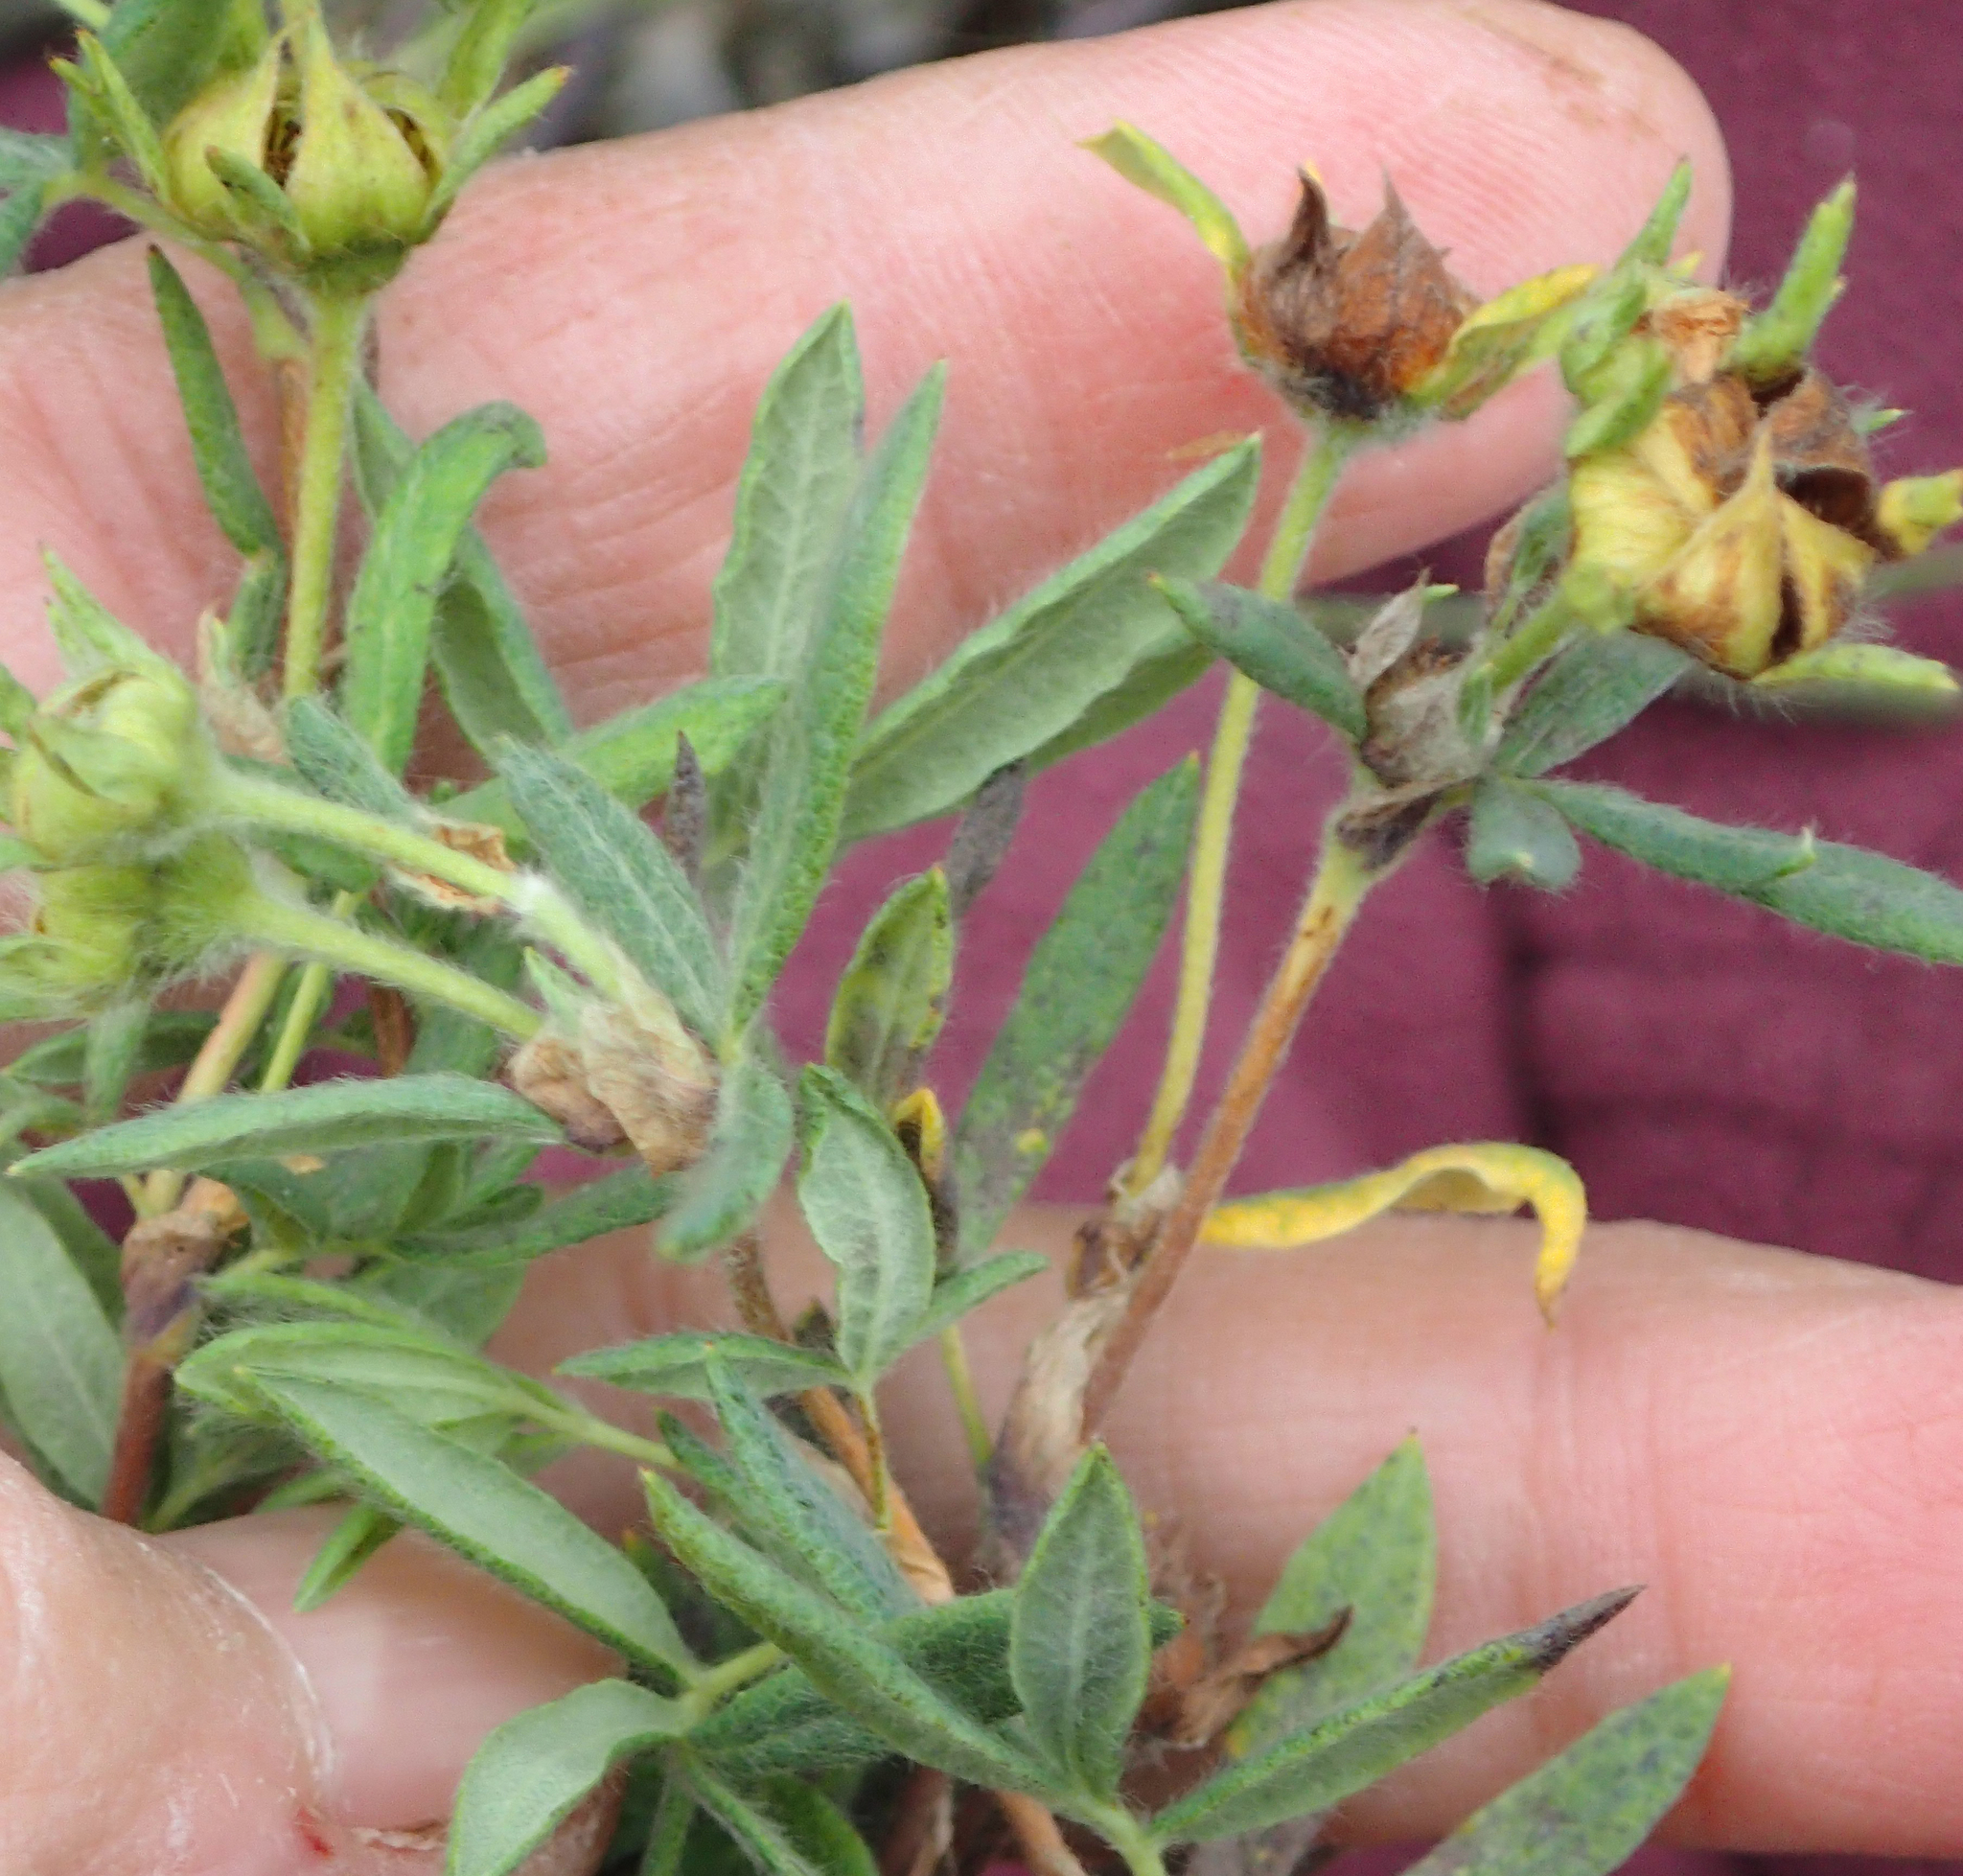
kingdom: Plantae
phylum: Tracheophyta
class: Magnoliopsida
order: Rosales
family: Rosaceae
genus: Dasiphora
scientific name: Dasiphora fruticosa
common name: Shrubby cinquefoil
